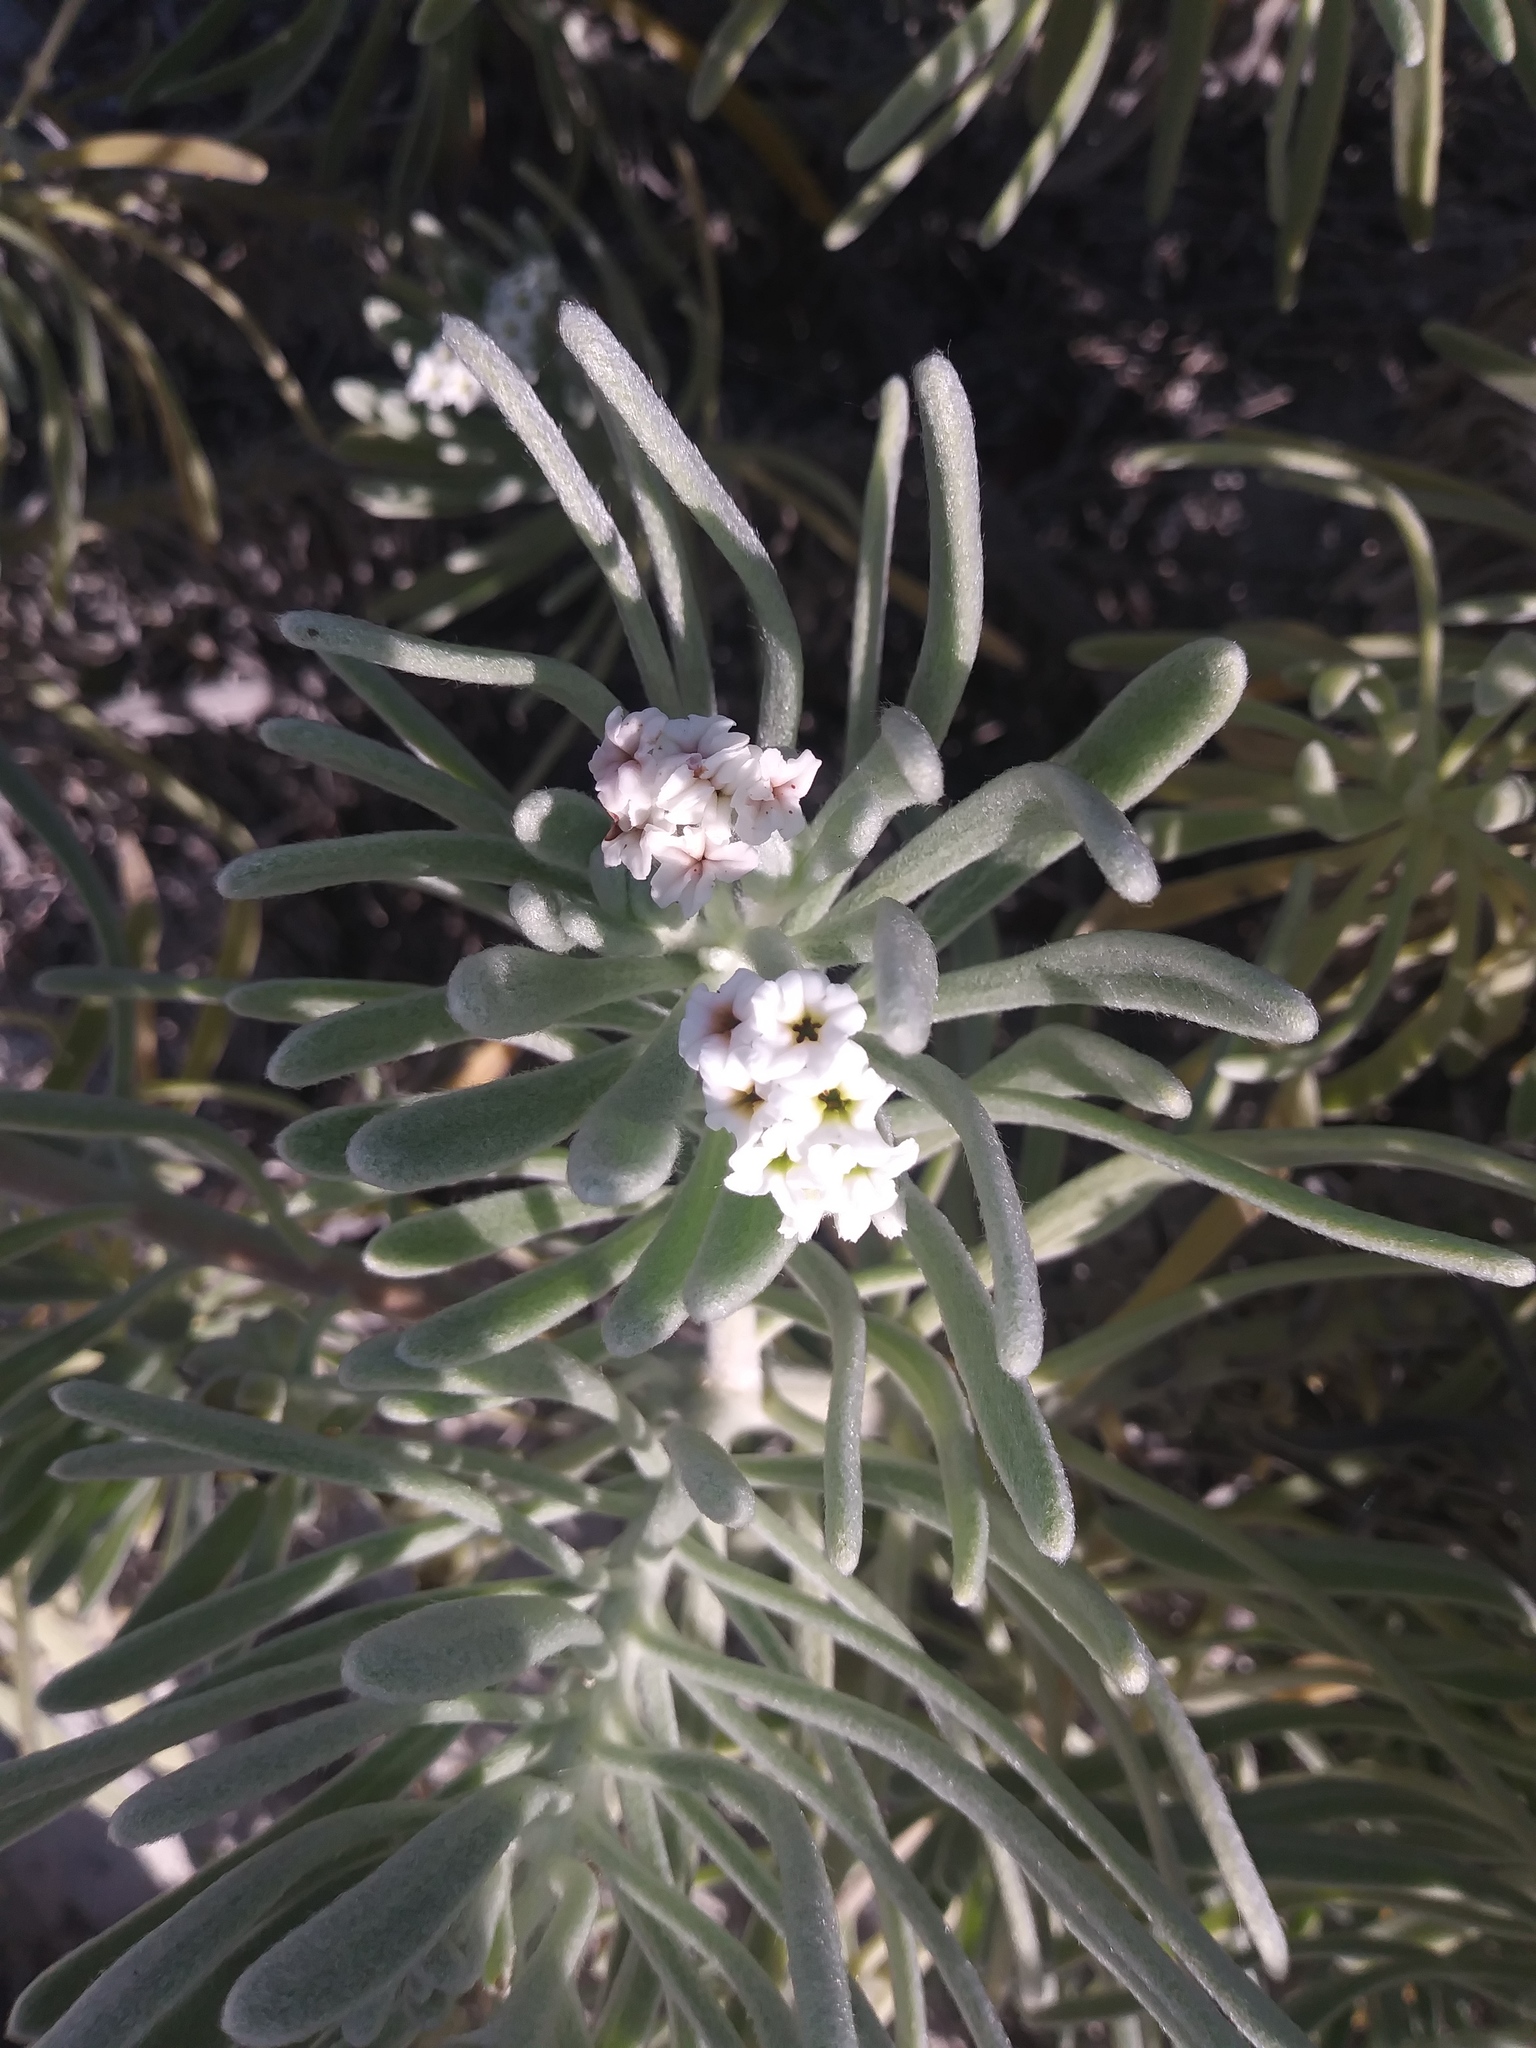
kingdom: Plantae
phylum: Tracheophyta
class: Magnoliopsida
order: Boraginales
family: Heliotropiaceae
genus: Tournefortia
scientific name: Tournefortia gnaphalodes
